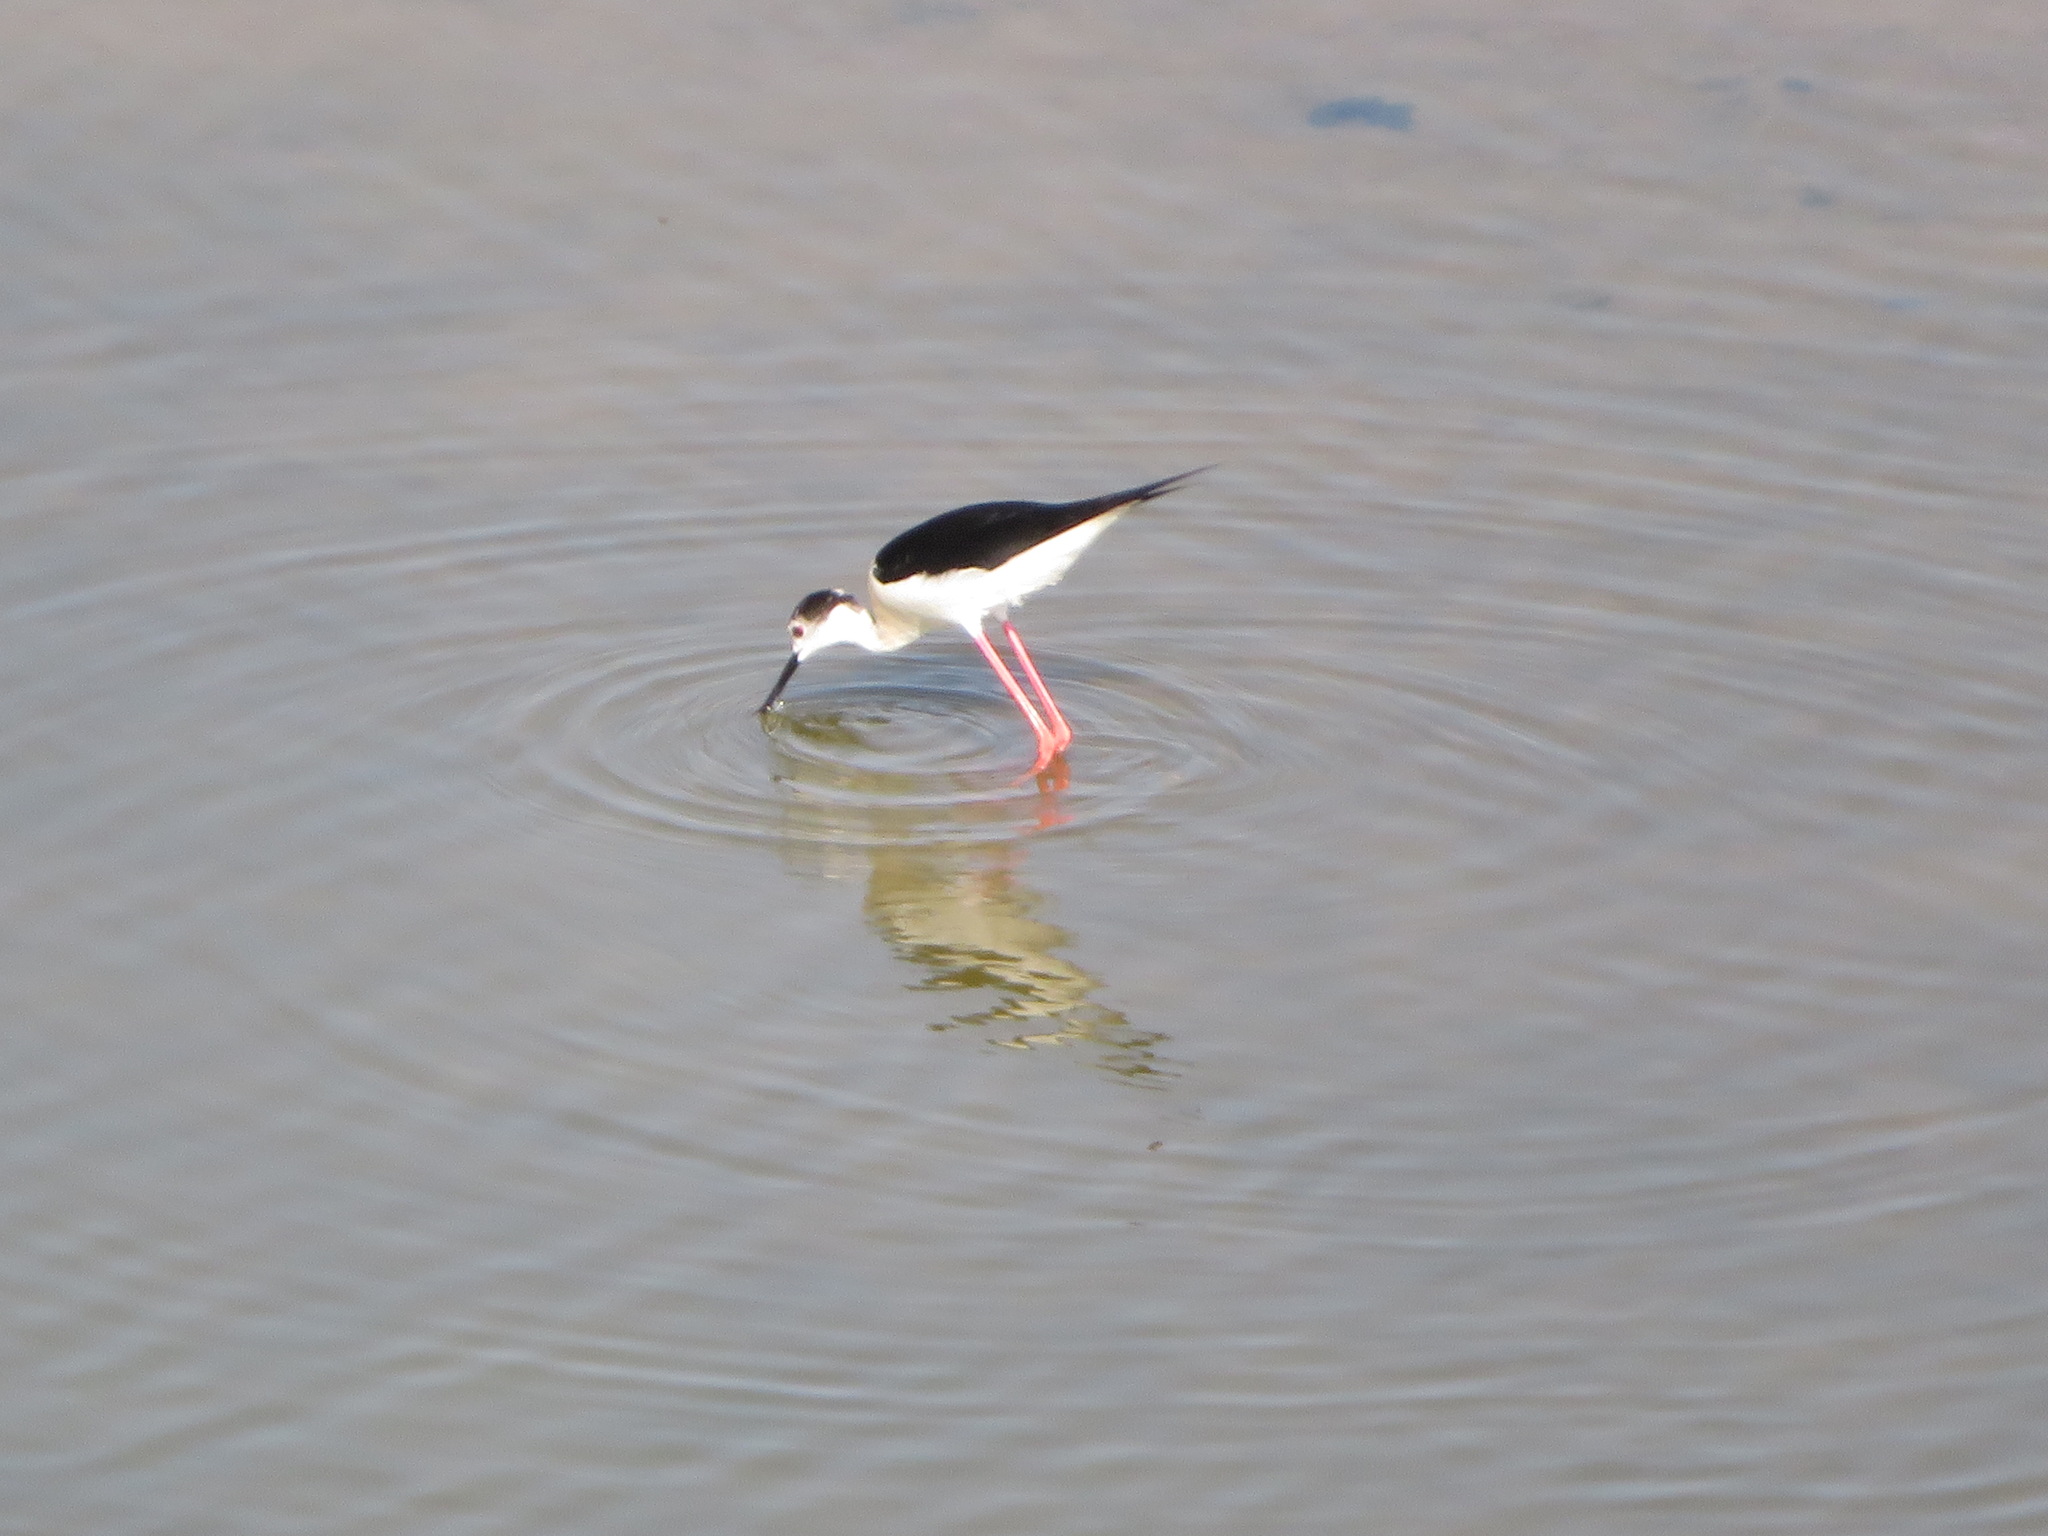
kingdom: Animalia
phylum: Chordata
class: Aves
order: Charadriiformes
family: Recurvirostridae
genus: Himantopus
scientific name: Himantopus himantopus
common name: Black-winged stilt
